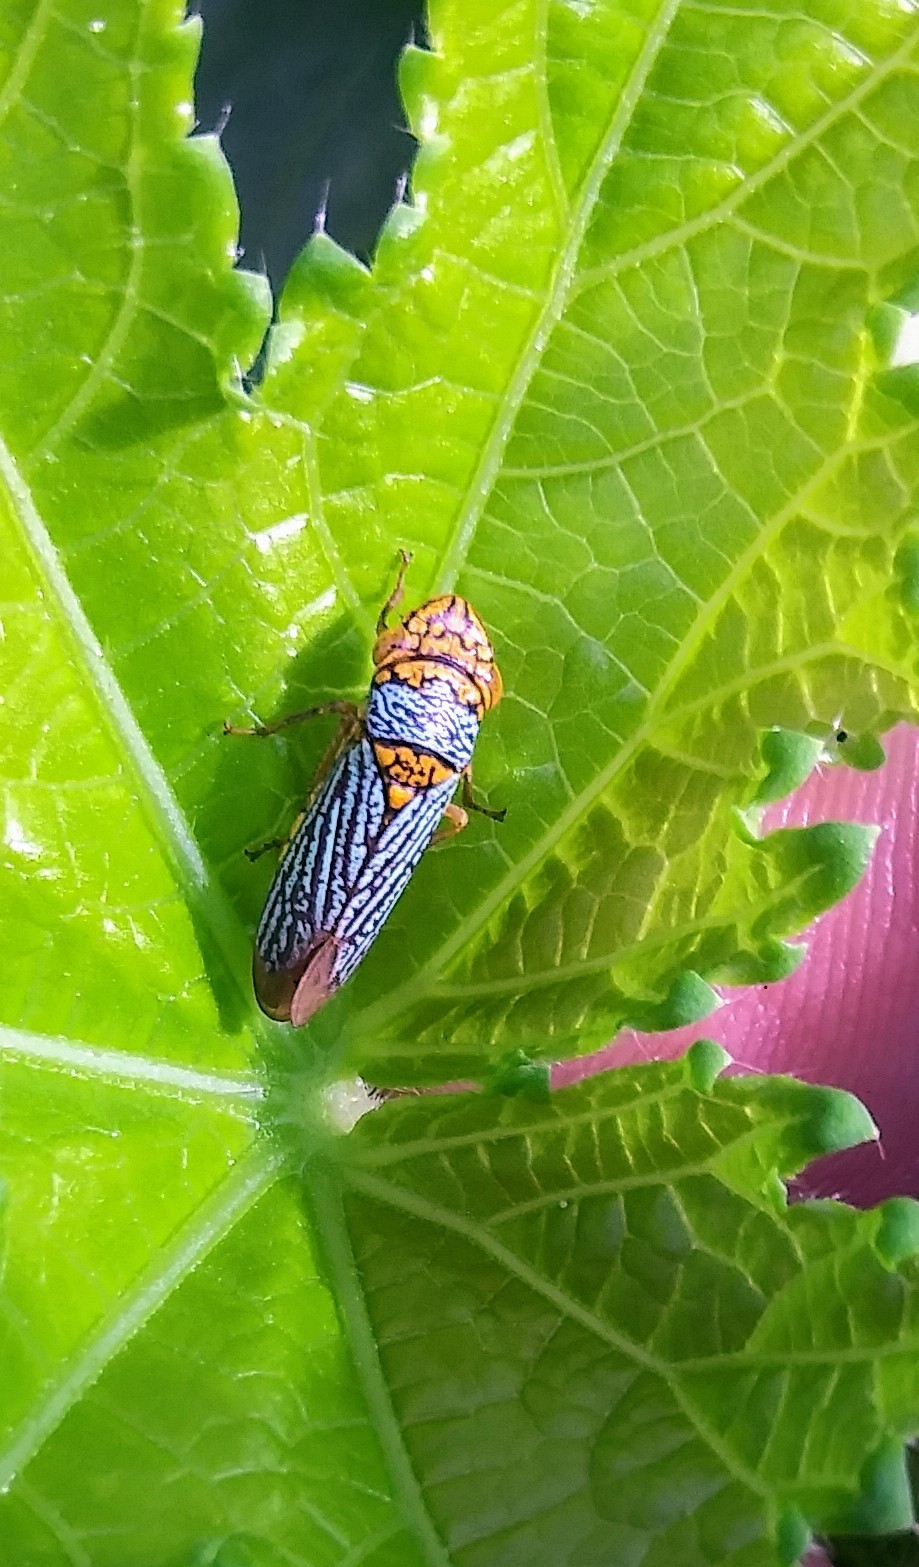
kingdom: Animalia
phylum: Arthropoda
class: Insecta
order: Hemiptera
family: Cicadellidae
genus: Oncometopia
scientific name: Oncometopia nigricans
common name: Black-winged sharpshooter
